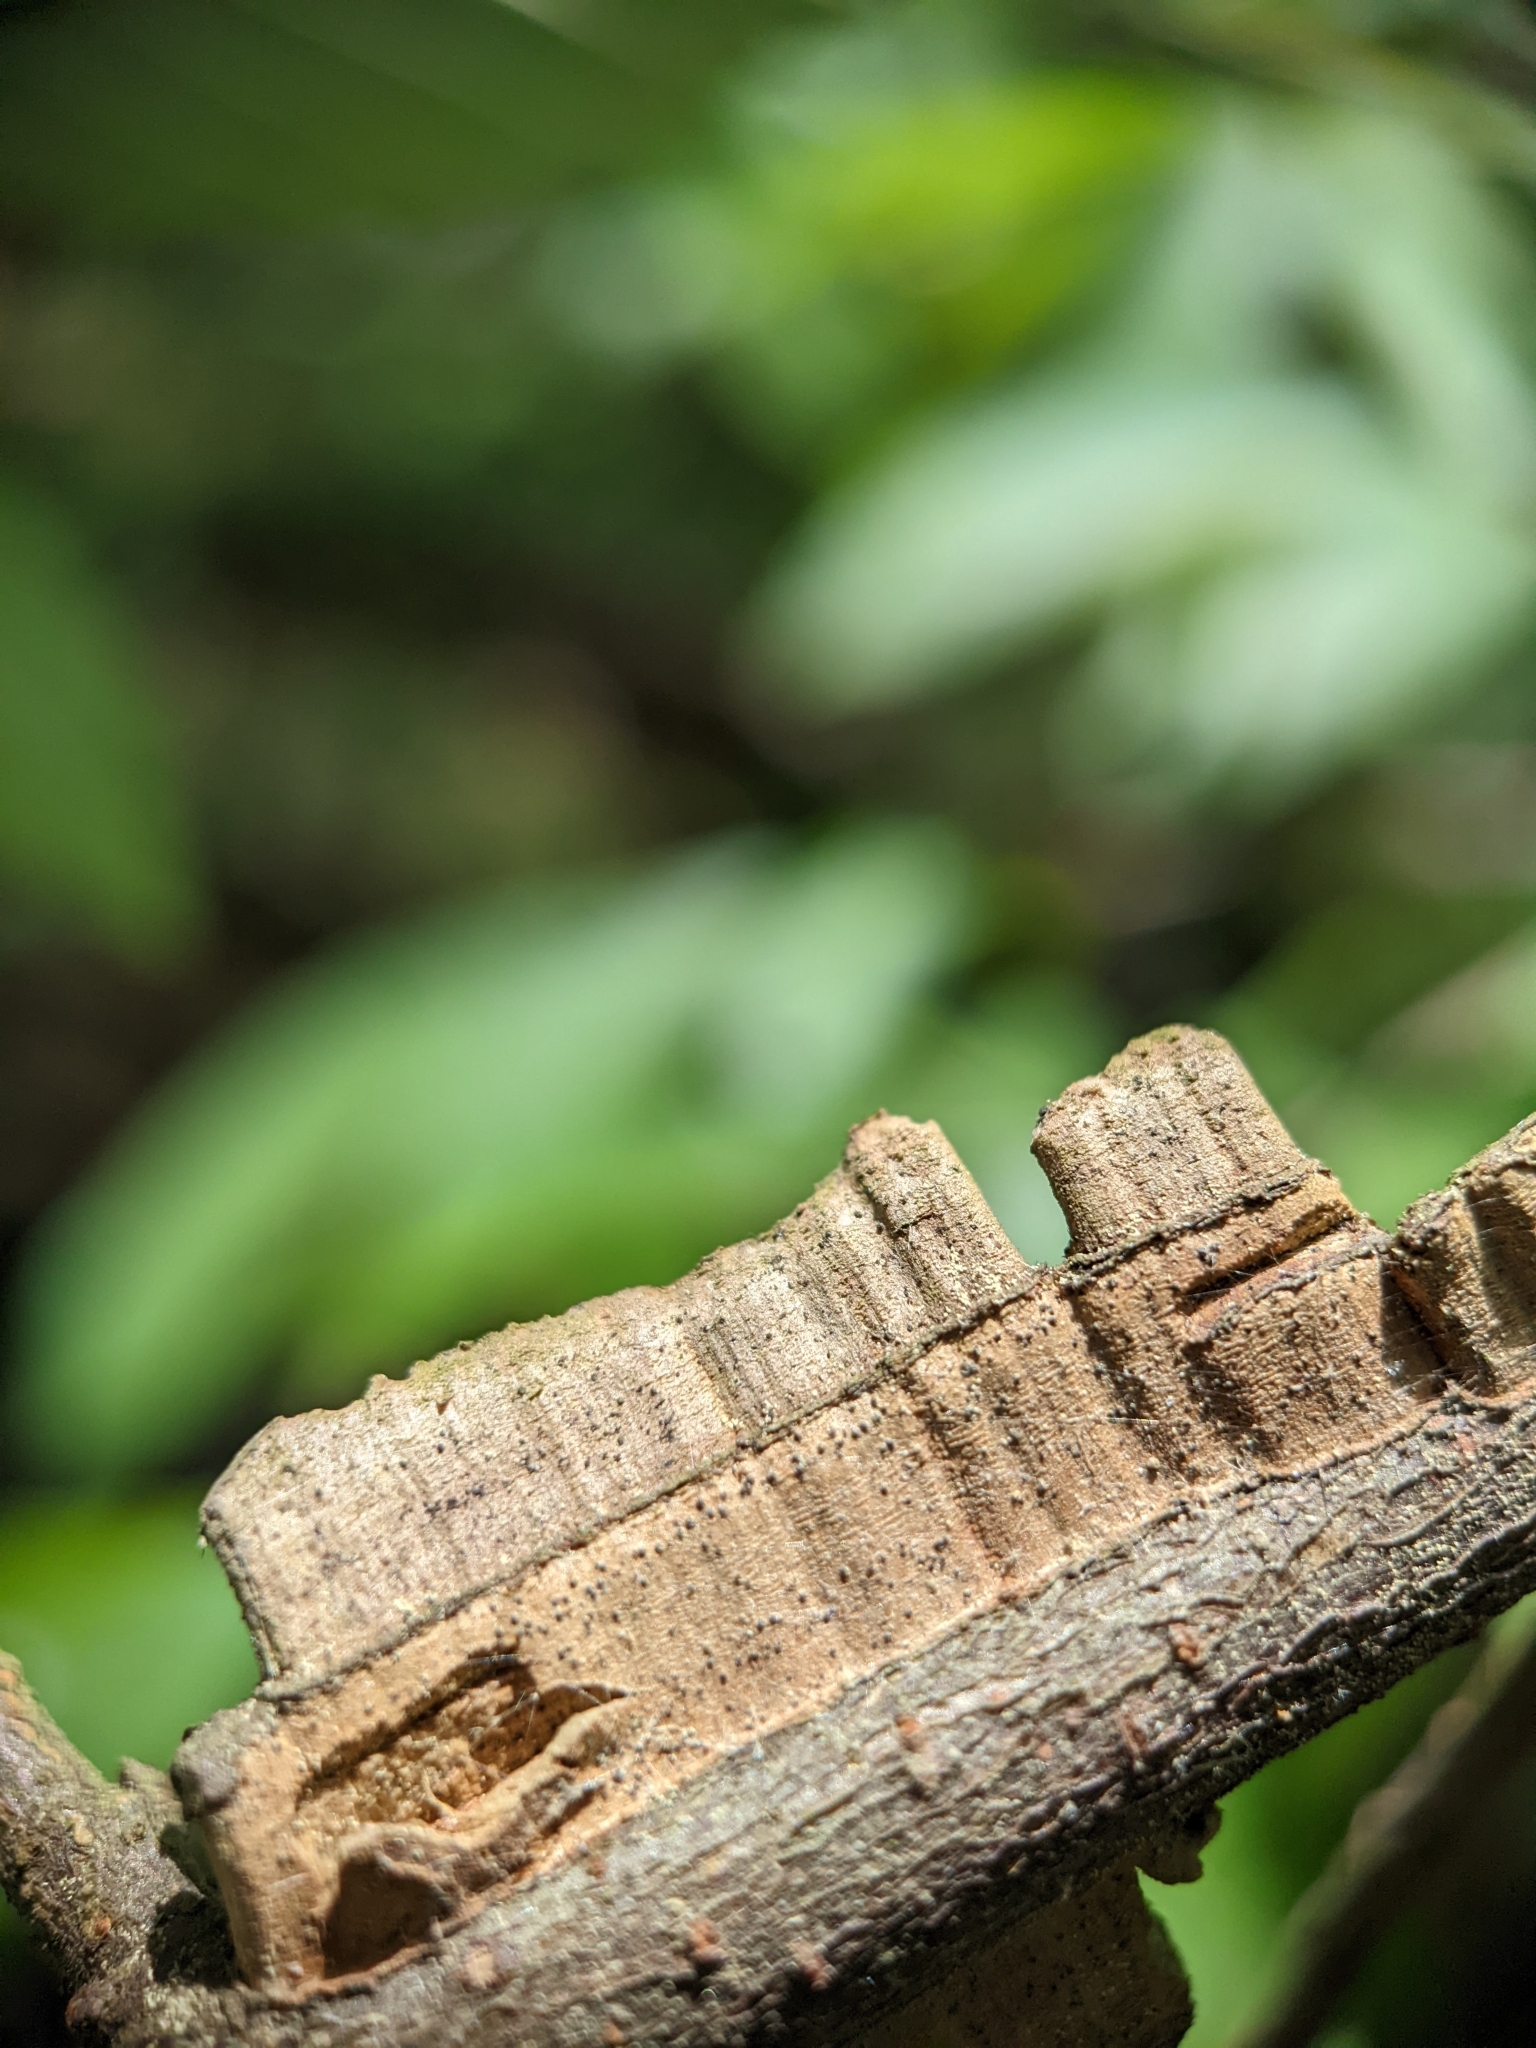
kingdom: Plantae
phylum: Tracheophyta
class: Magnoliopsida
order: Rosales
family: Ulmaceae
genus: Ulmus
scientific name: Ulmus alata
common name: Winged elm
